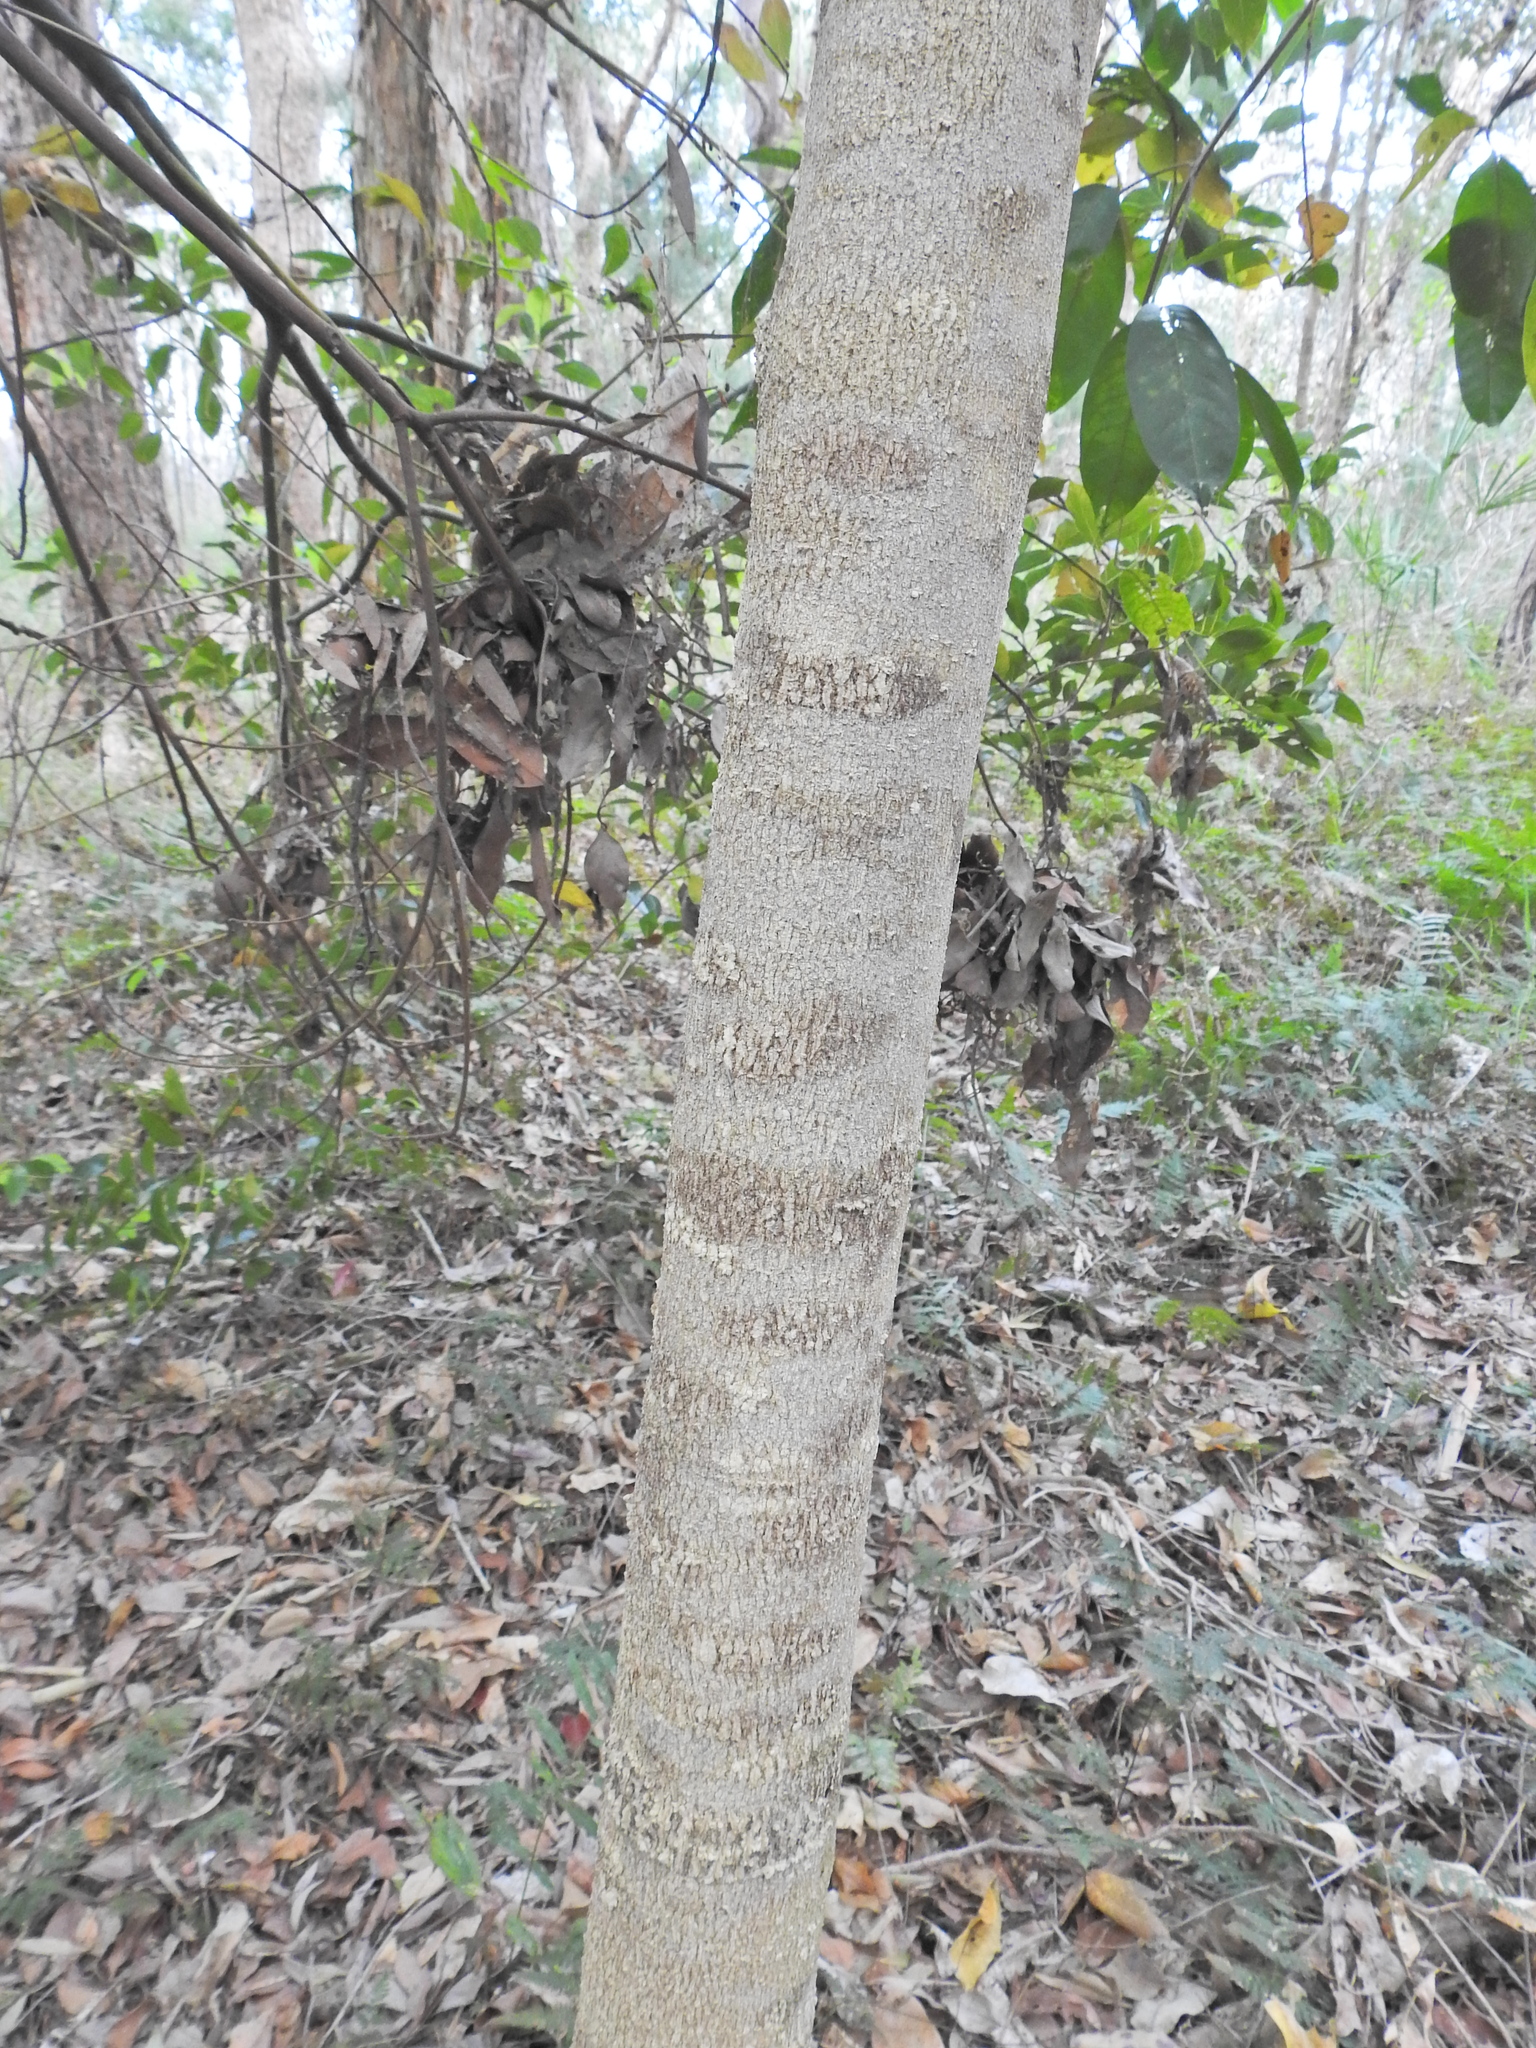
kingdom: Plantae
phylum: Tracheophyta
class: Magnoliopsida
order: Sapindales
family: Rutaceae
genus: Melicope
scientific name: Melicope elleryana
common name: Pink euodia
